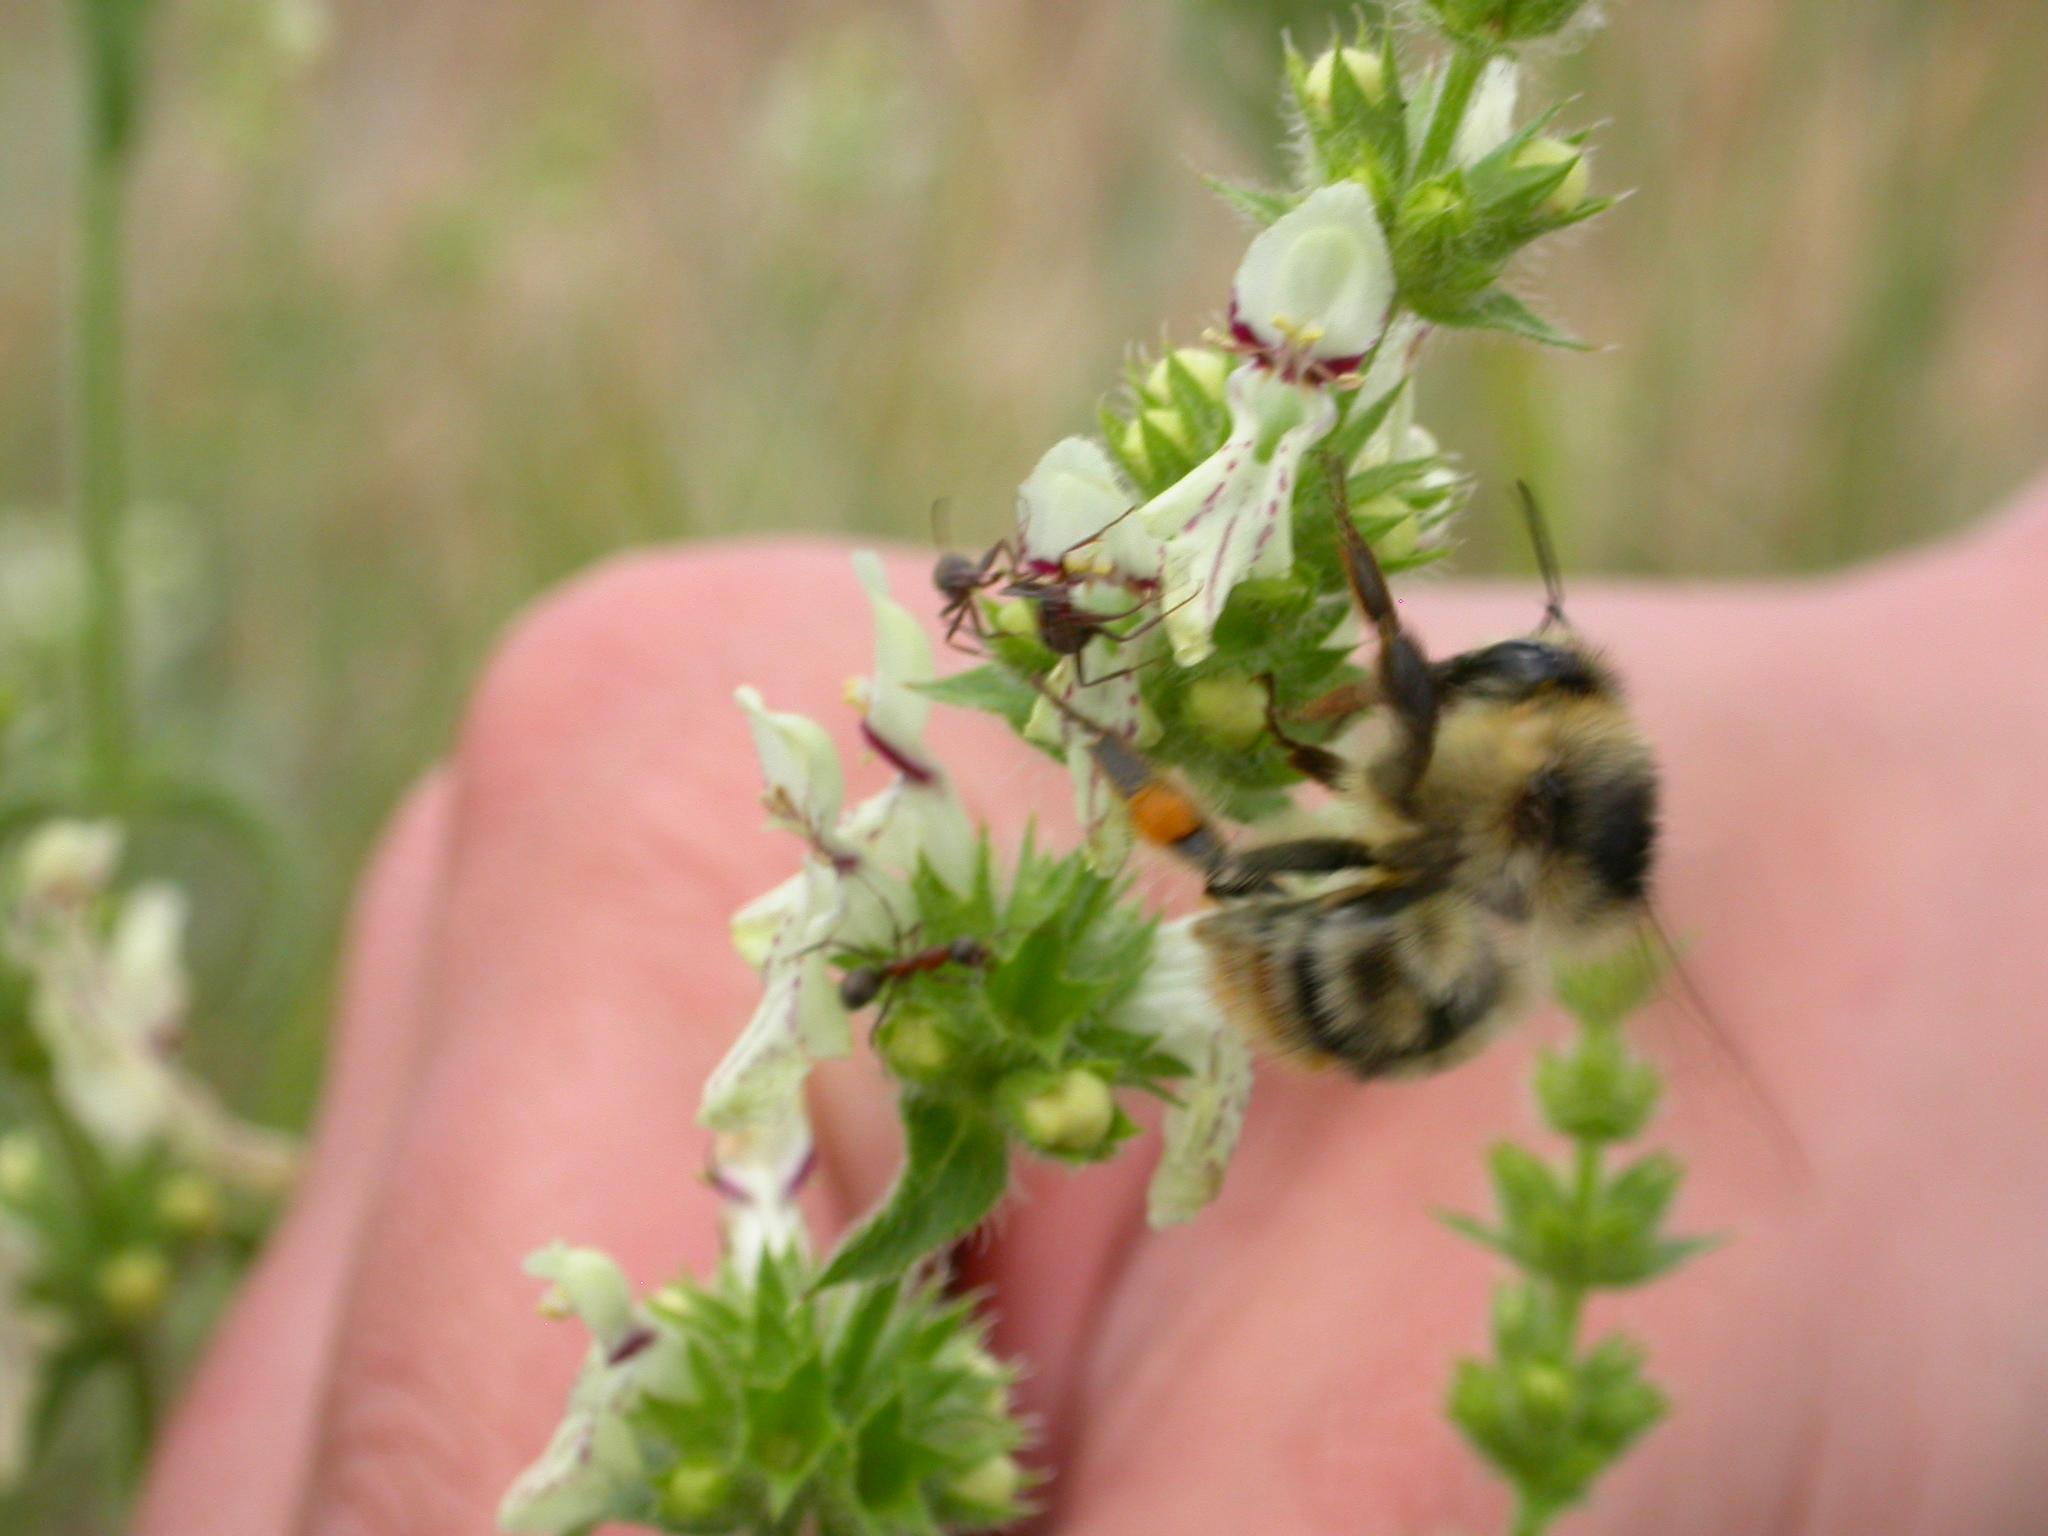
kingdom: Animalia
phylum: Arthropoda
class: Insecta
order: Hymenoptera
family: Apidae
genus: Bombus
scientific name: Bombus sylvarum
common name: Shrill carder bee
